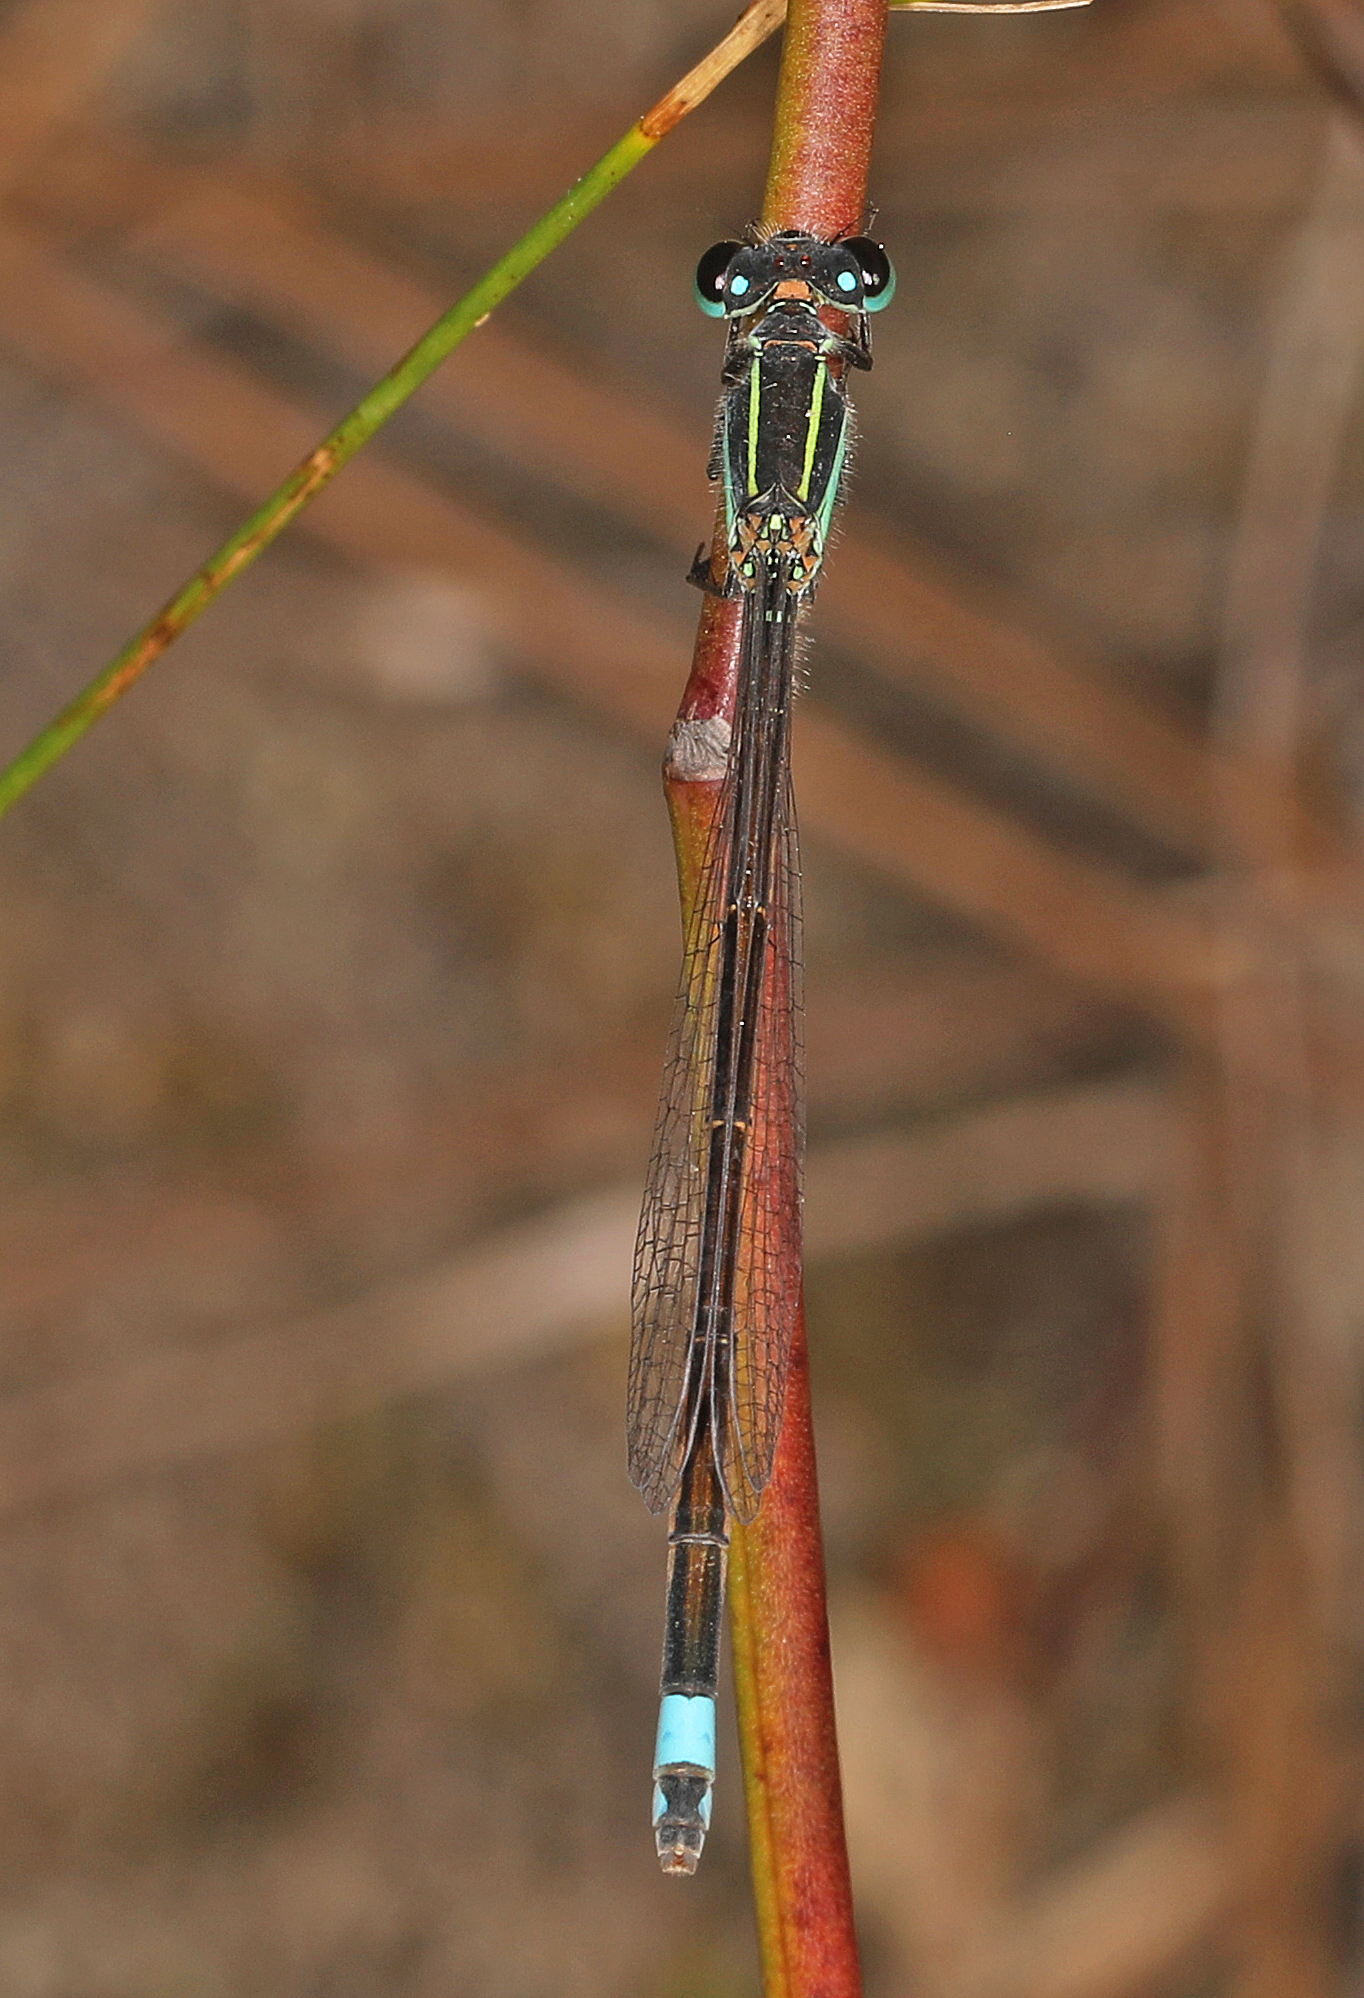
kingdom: Animalia
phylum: Arthropoda
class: Insecta
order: Odonata
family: Coenagrionidae
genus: Ischnura
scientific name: Ischnura ramburii
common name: Rambur's forktail
